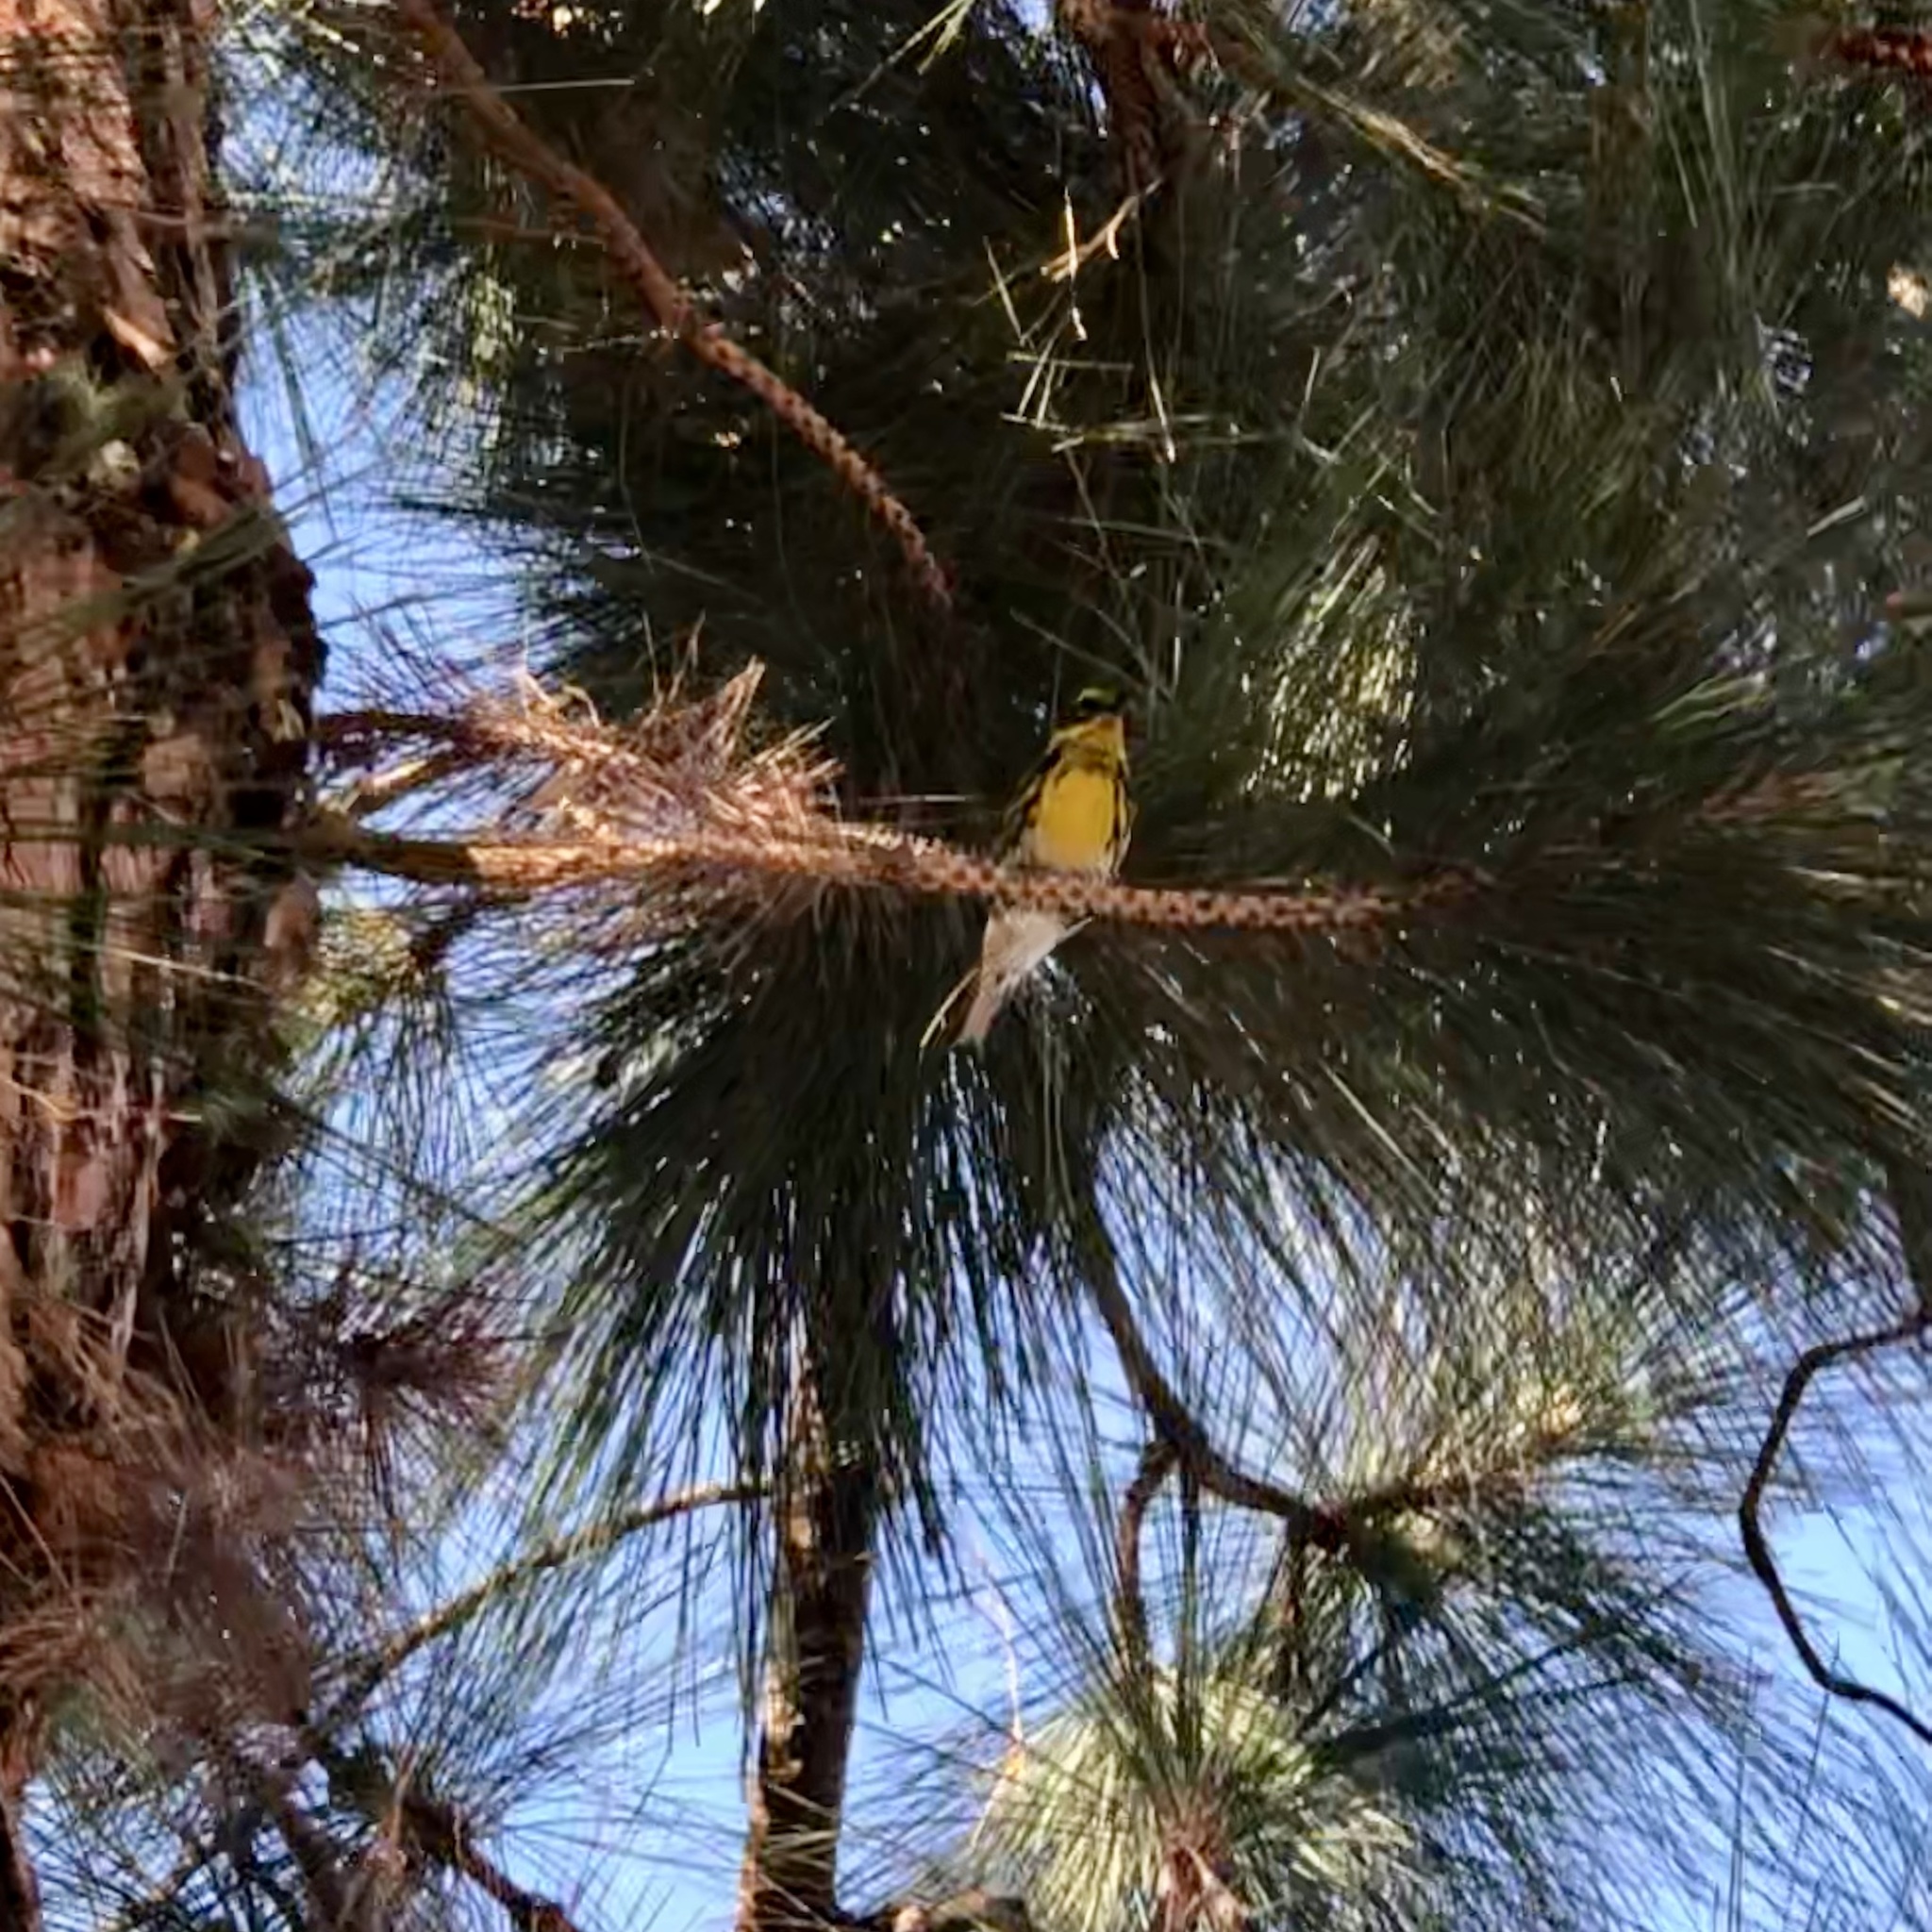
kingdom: Animalia
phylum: Chordata
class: Aves
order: Passeriformes
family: Parulidae
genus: Setophaga
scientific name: Setophaga townsendi
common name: Townsend's warbler
